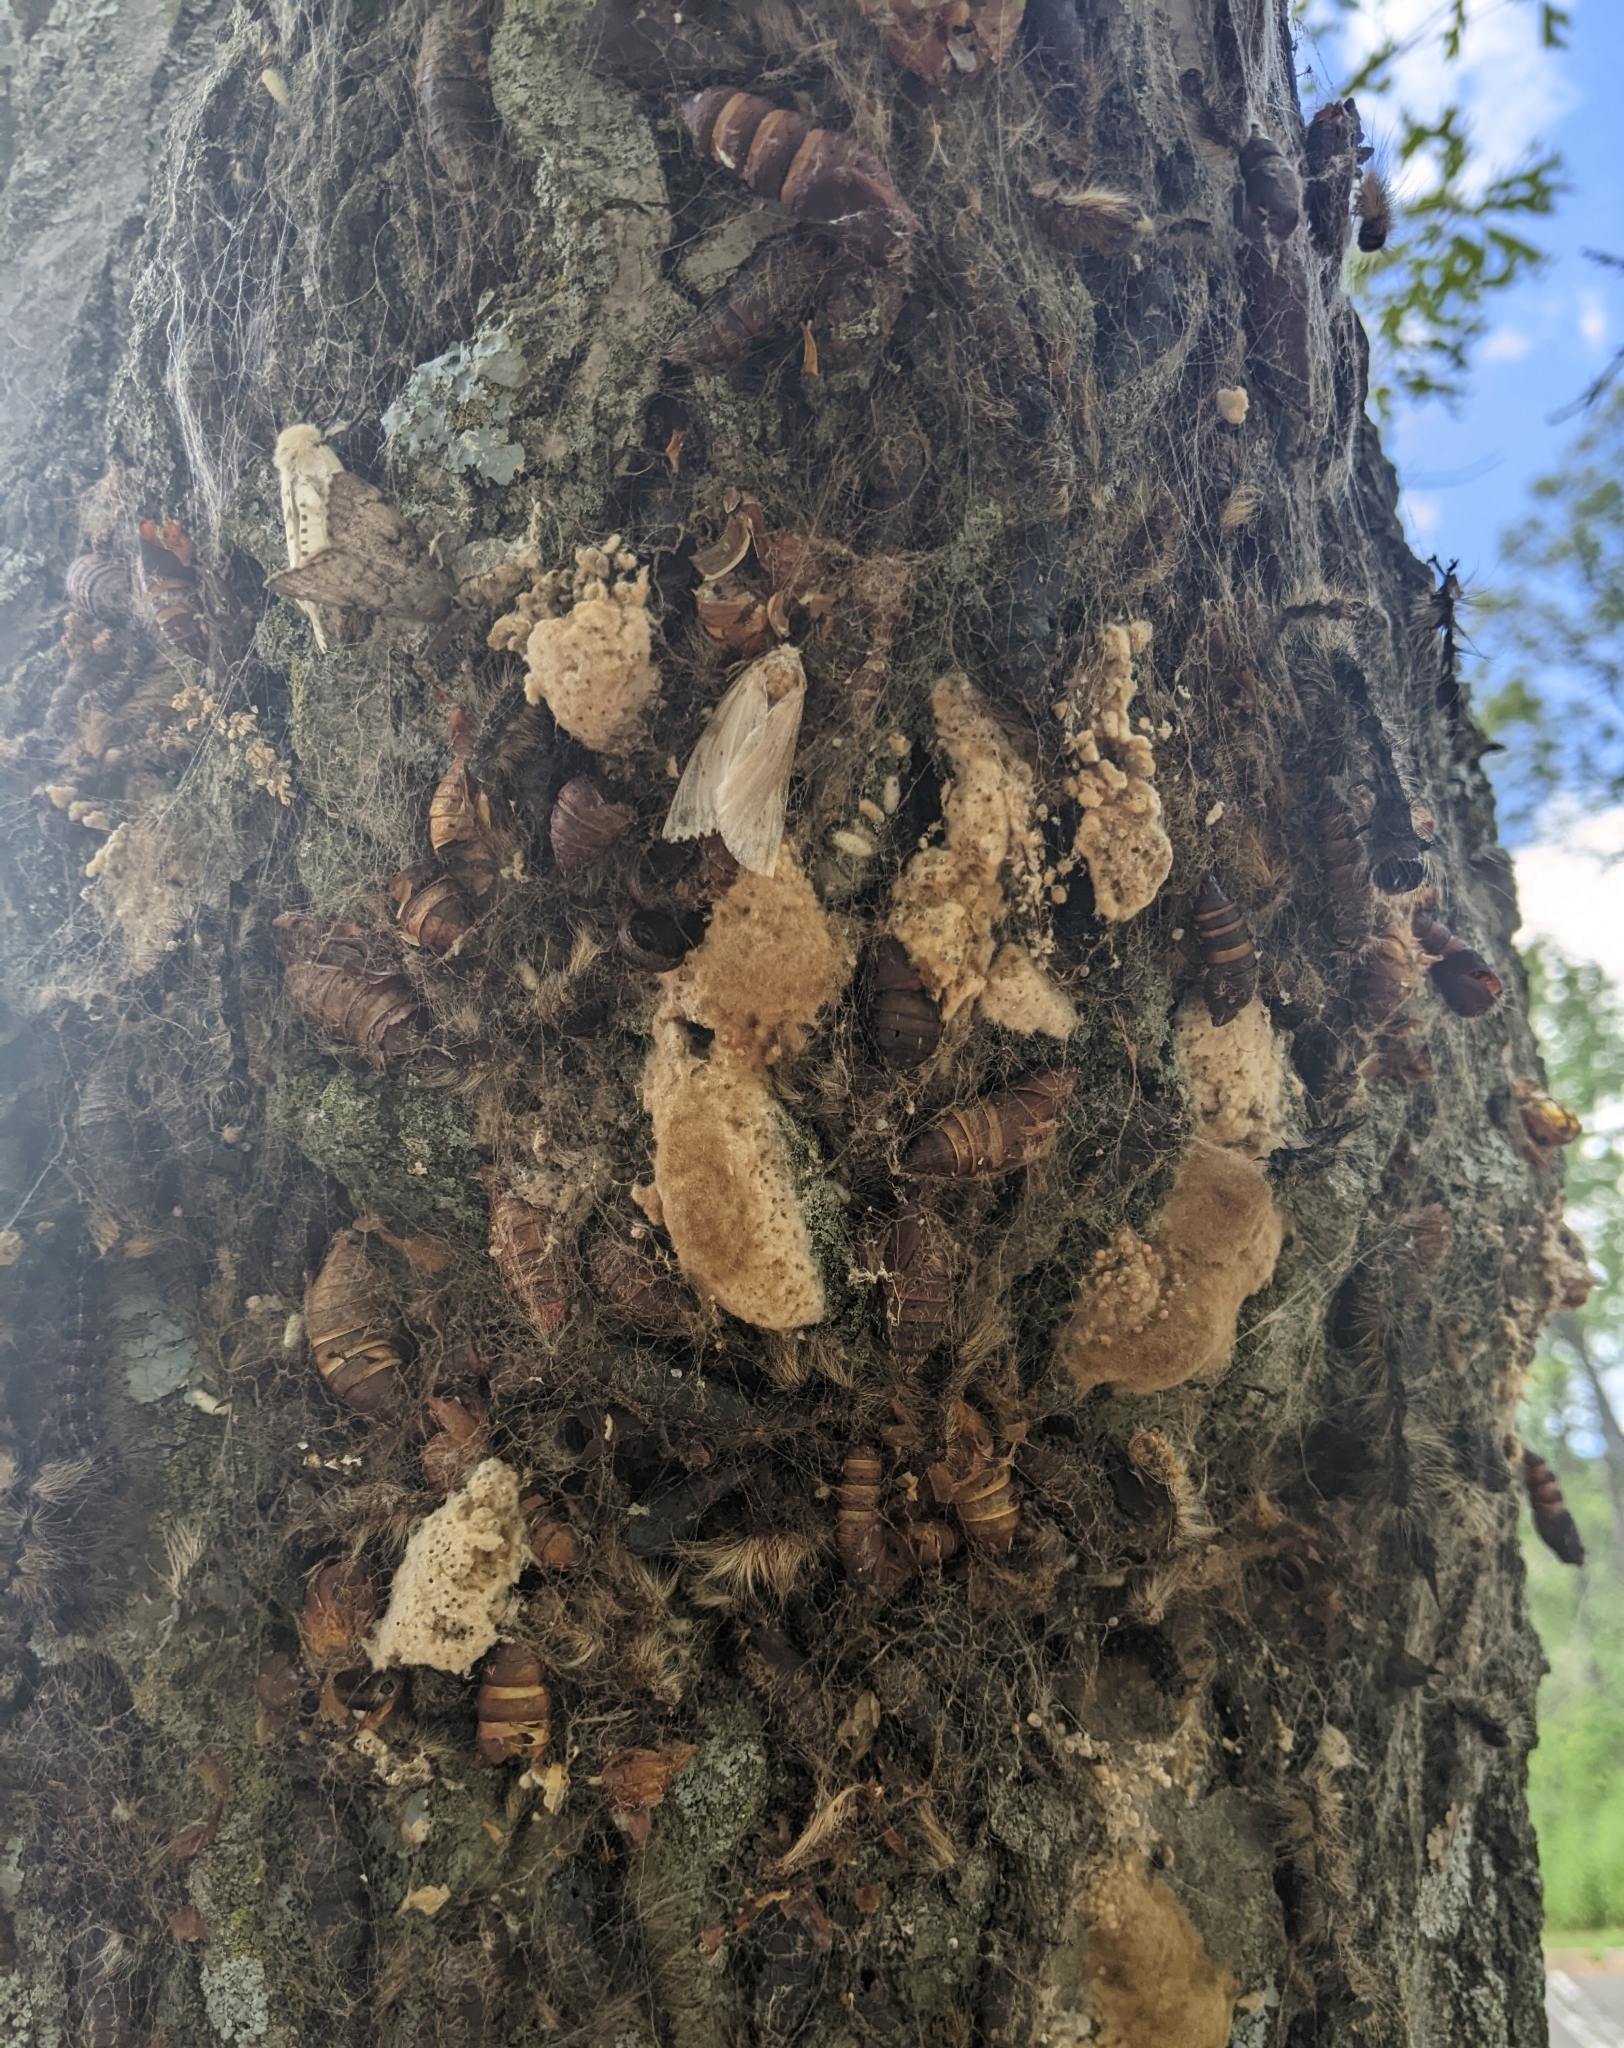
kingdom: Animalia
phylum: Arthropoda
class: Insecta
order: Lepidoptera
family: Erebidae
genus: Lymantria
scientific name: Lymantria dispar
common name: Gypsy moth
